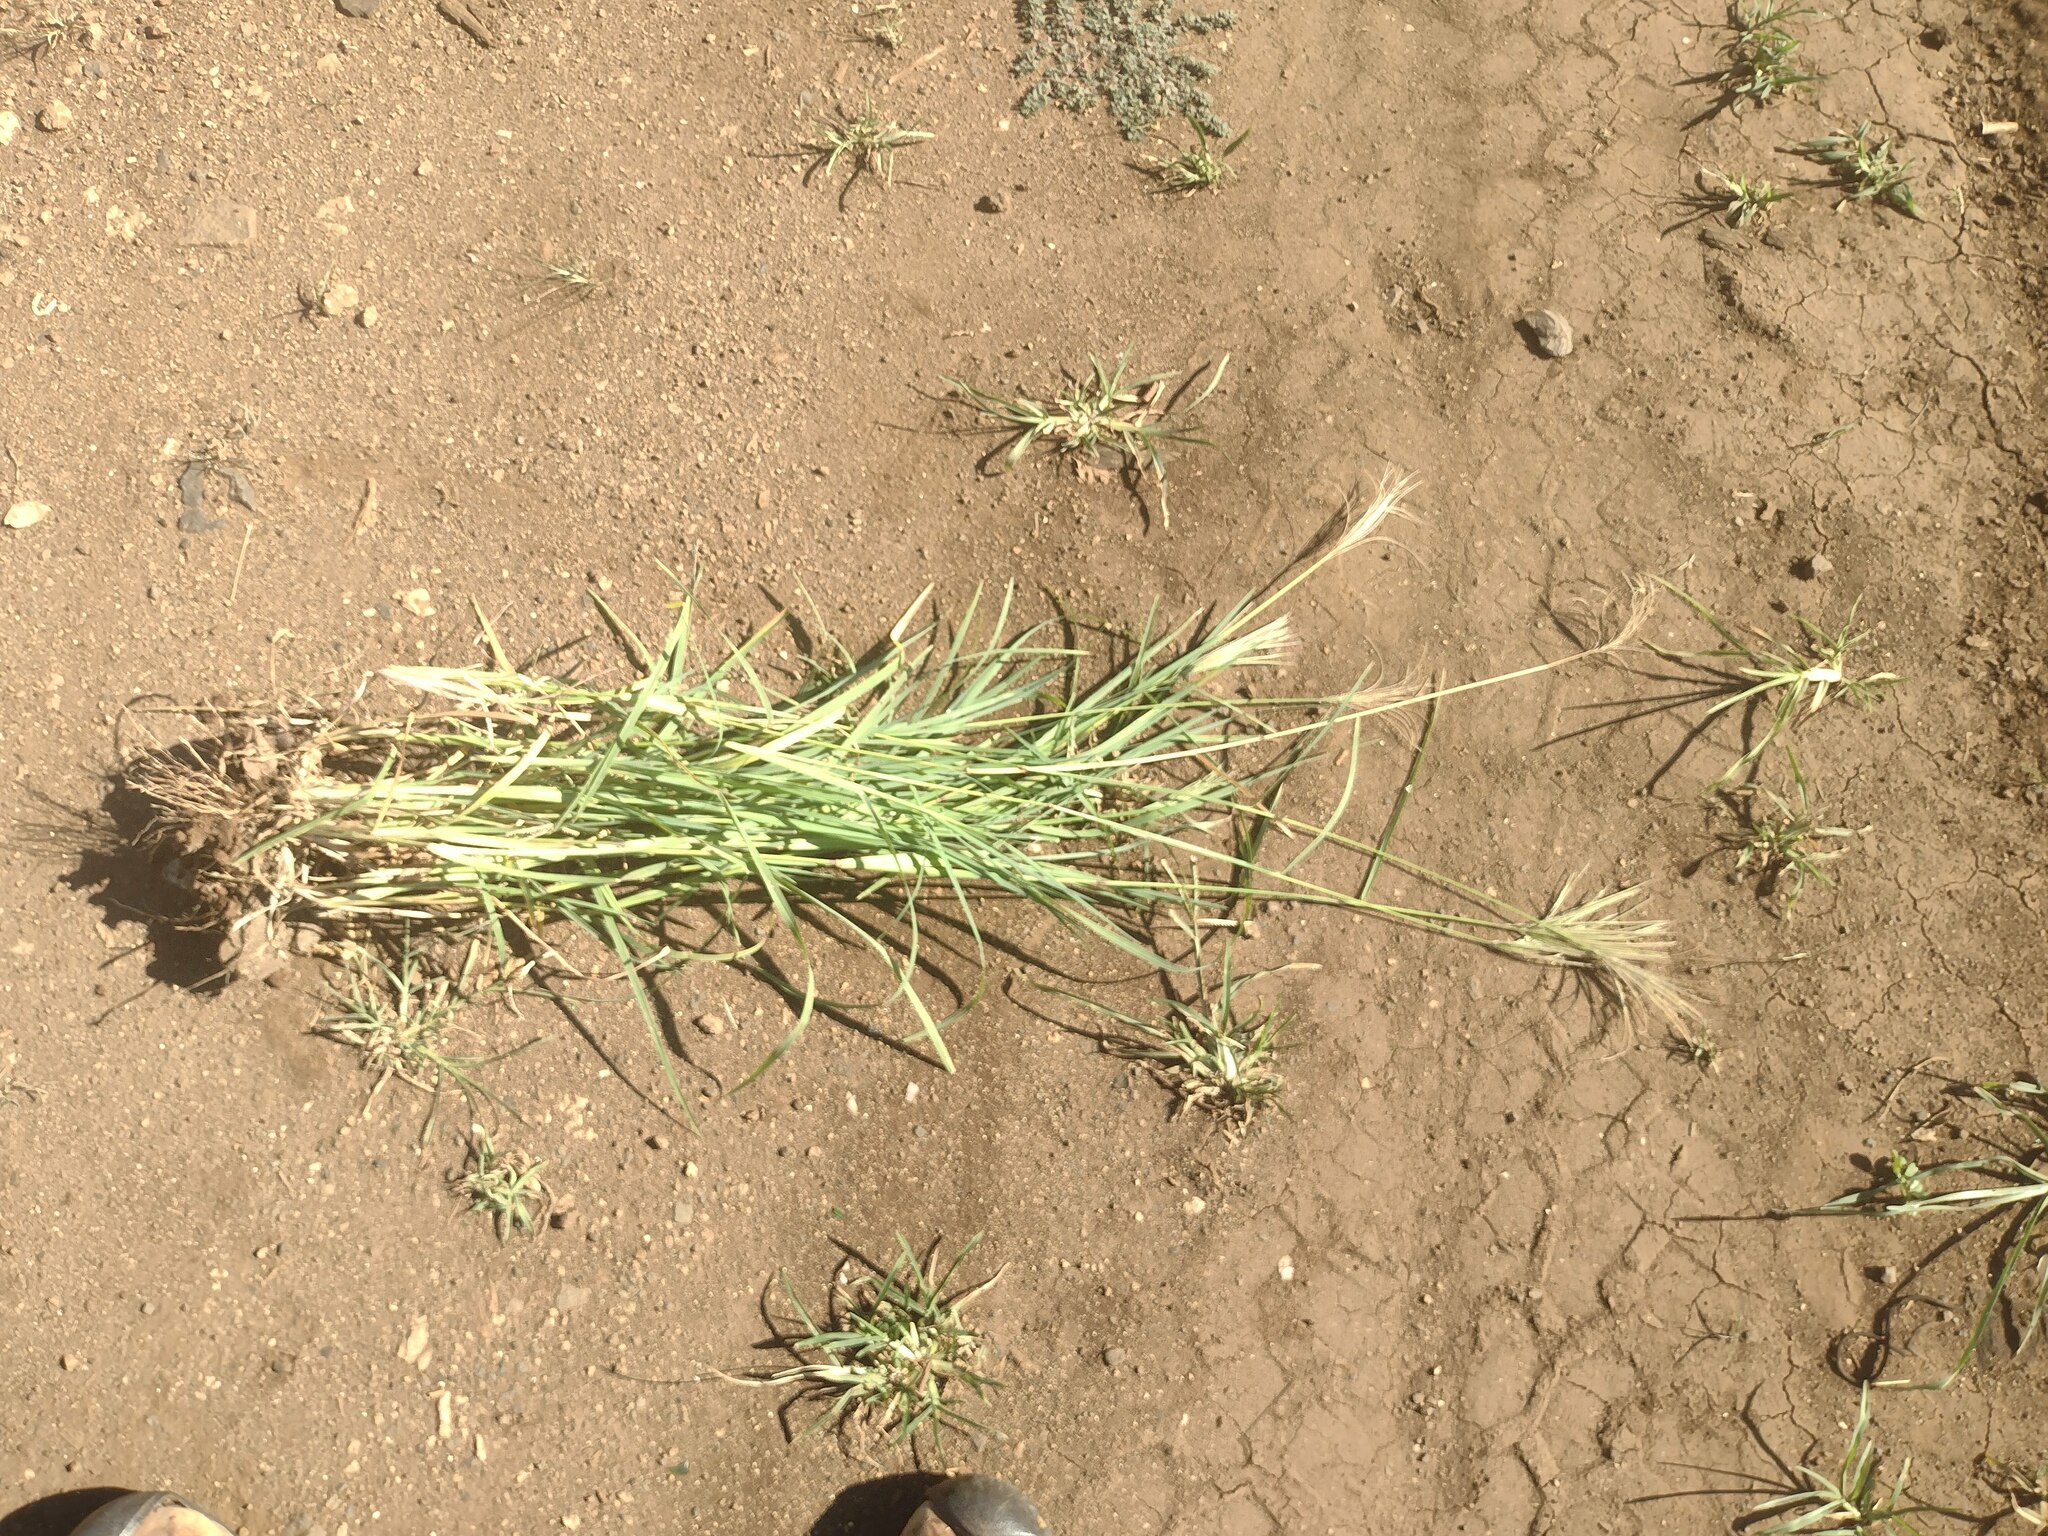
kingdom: Plantae
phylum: Tracheophyta
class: Liliopsida
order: Poales
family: Poaceae
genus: Chloris
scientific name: Chloris radiata
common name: Radiate fingergrass
